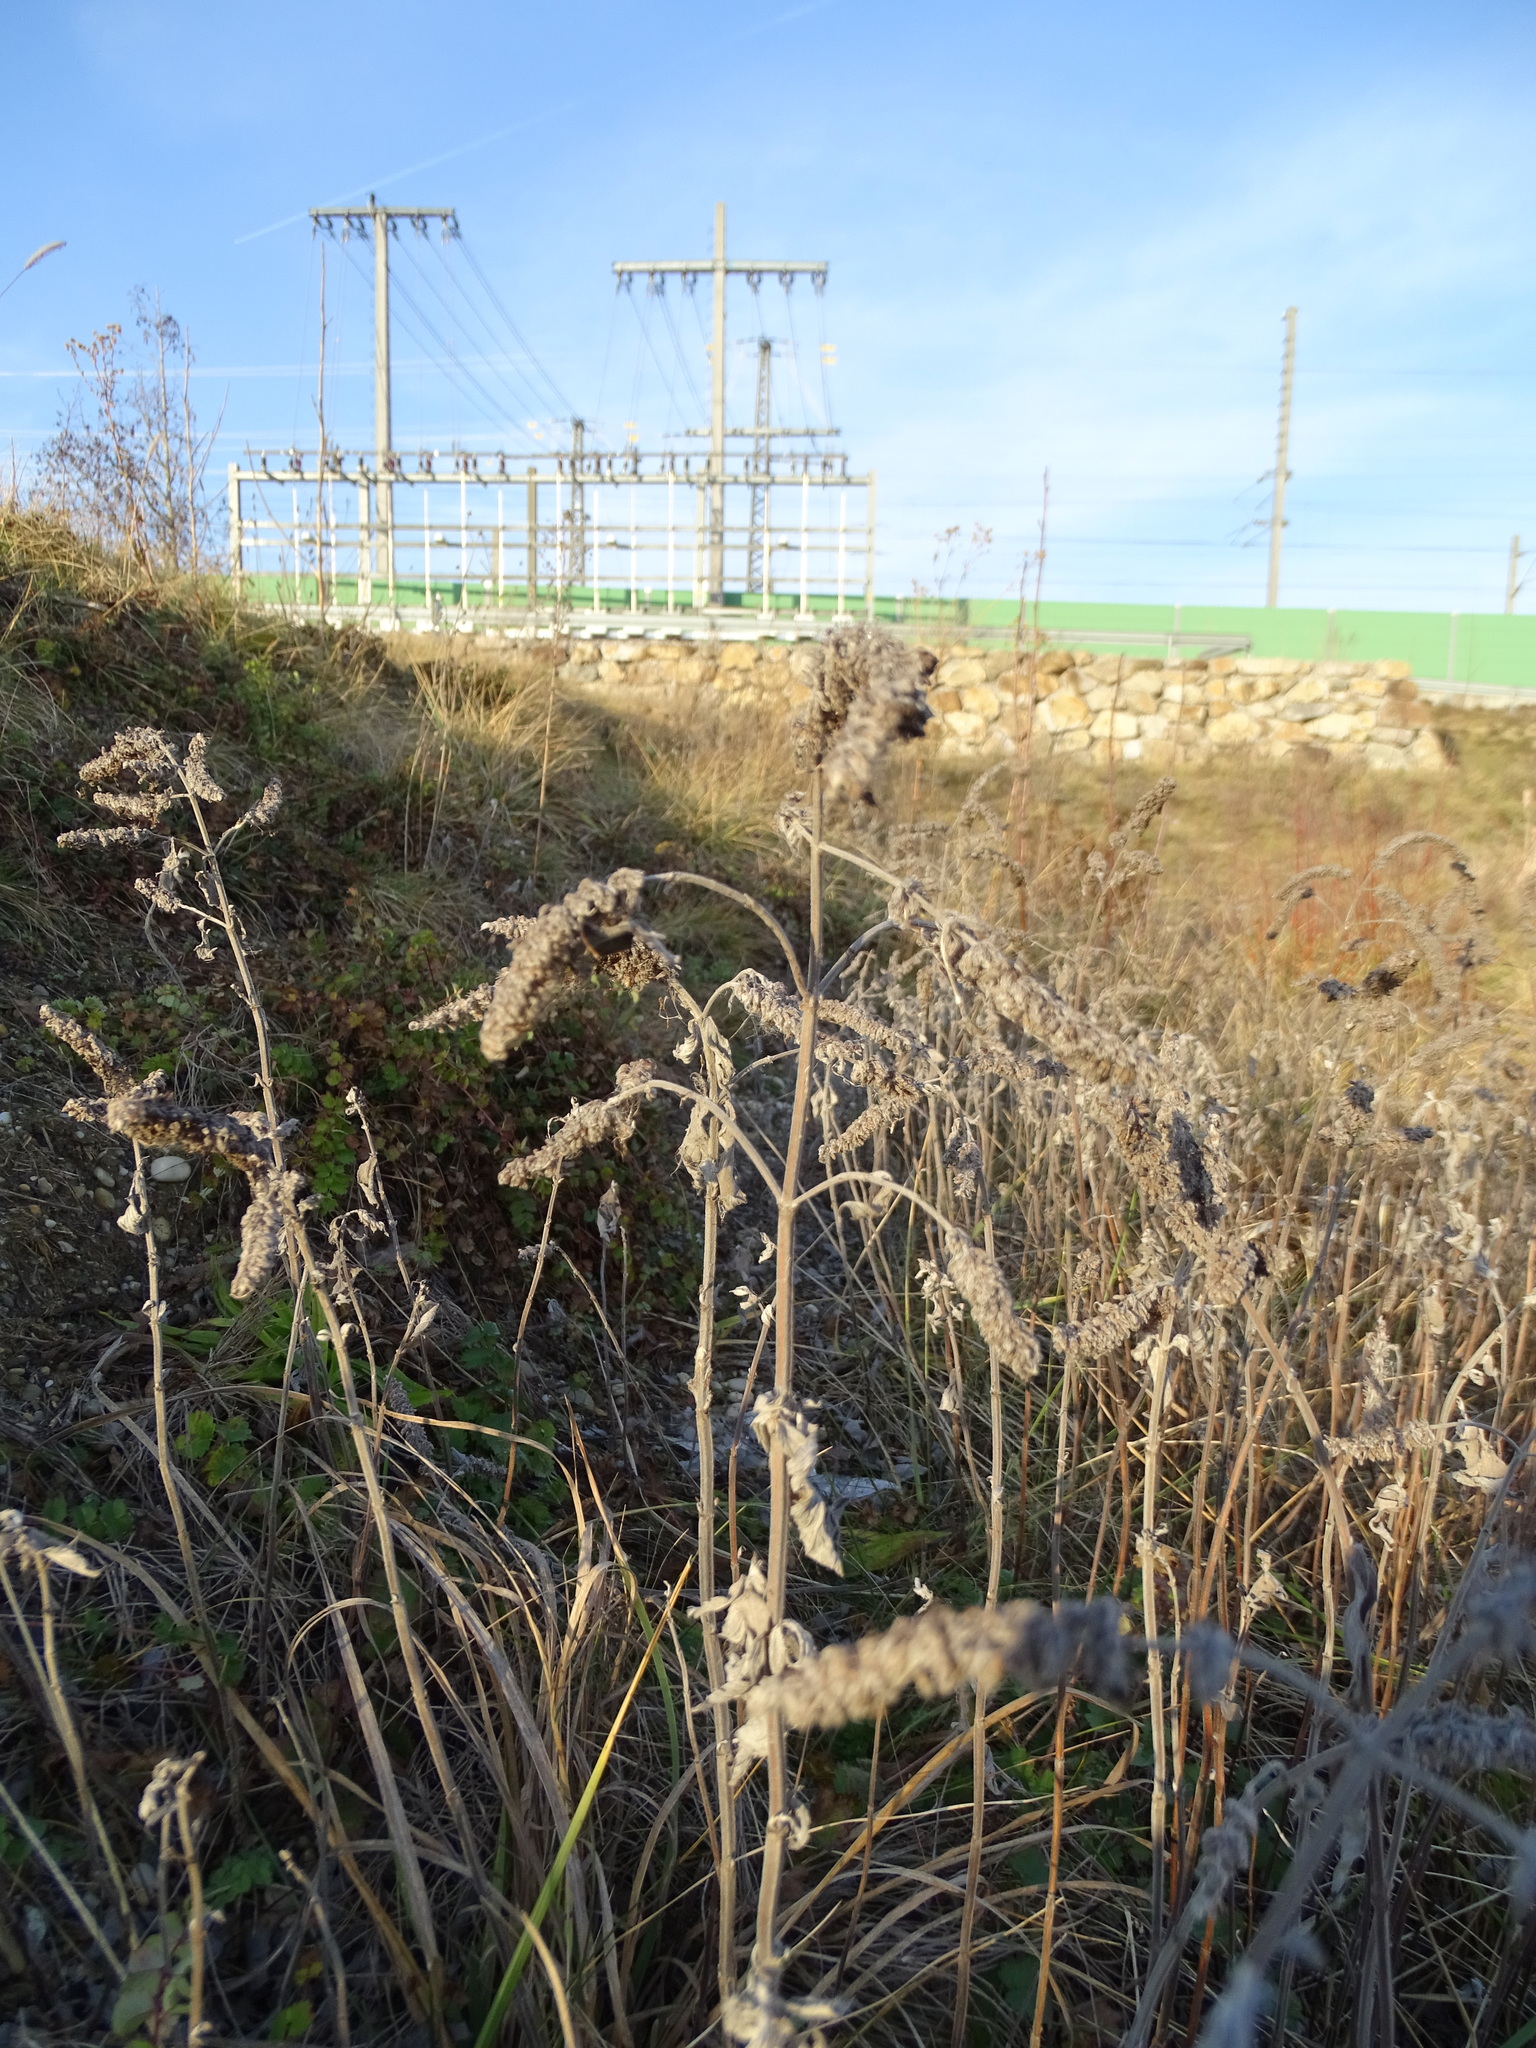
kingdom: Plantae
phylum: Tracheophyta
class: Magnoliopsida
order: Lamiales
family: Lamiaceae
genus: Mentha
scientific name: Mentha longifolia
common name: Horse mint
